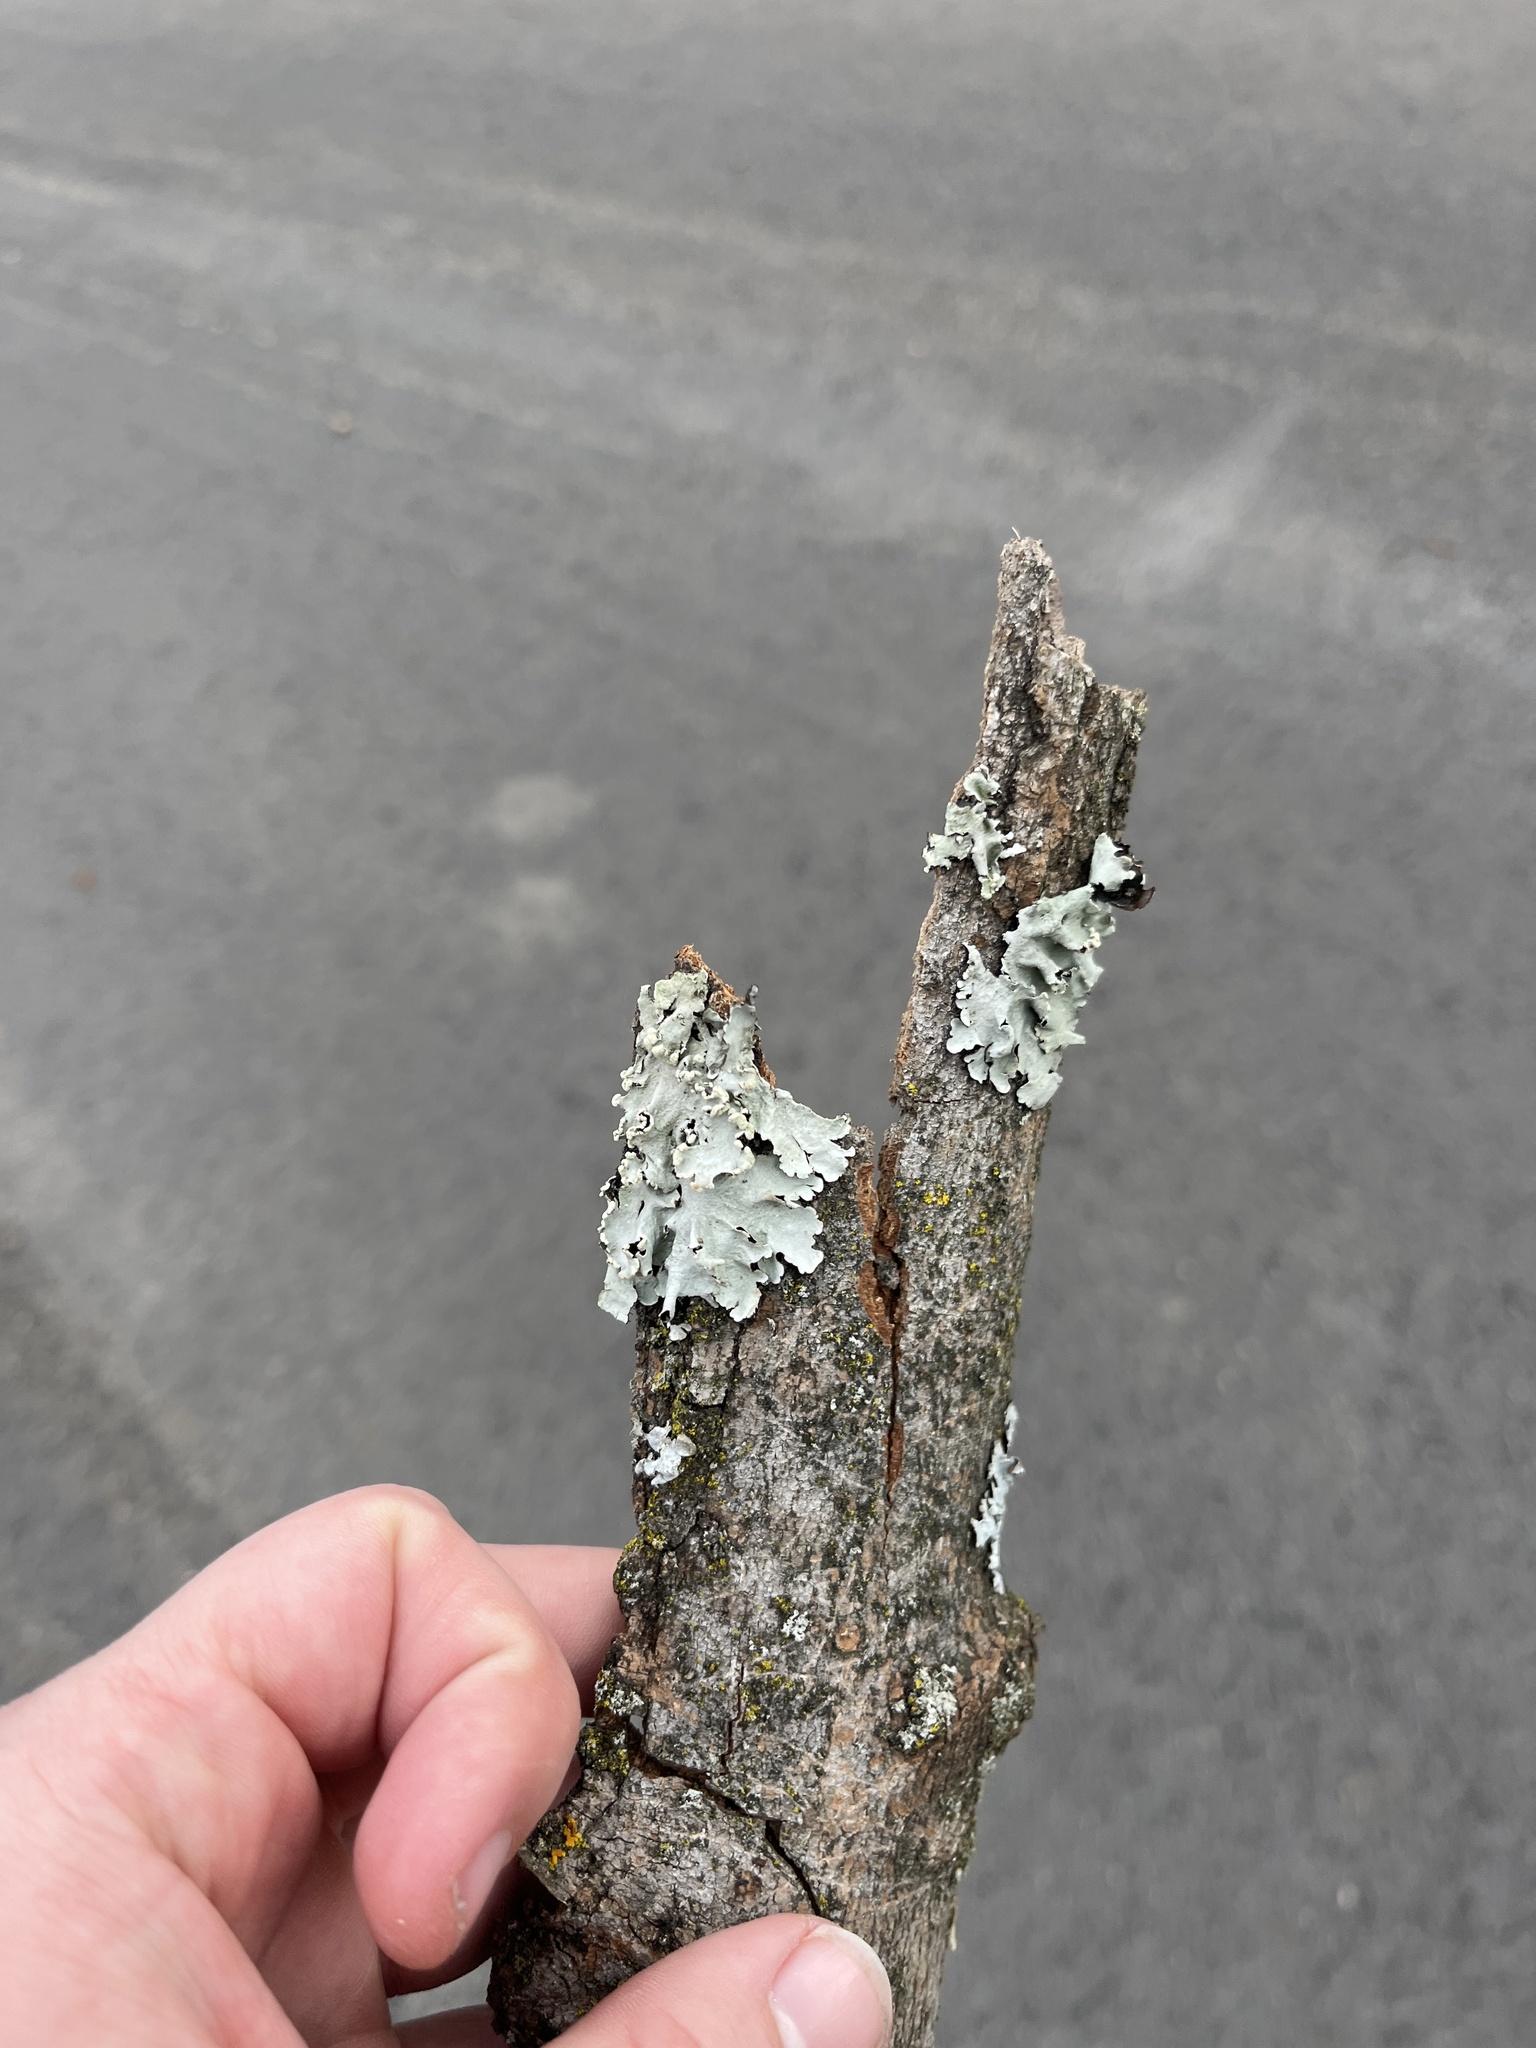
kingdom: Fungi
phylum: Ascomycota
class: Lecanoromycetes
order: Lecanorales
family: Parmeliaceae
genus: Flavoparmelia
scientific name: Flavoparmelia caperata
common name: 40-mile per hour lichen
